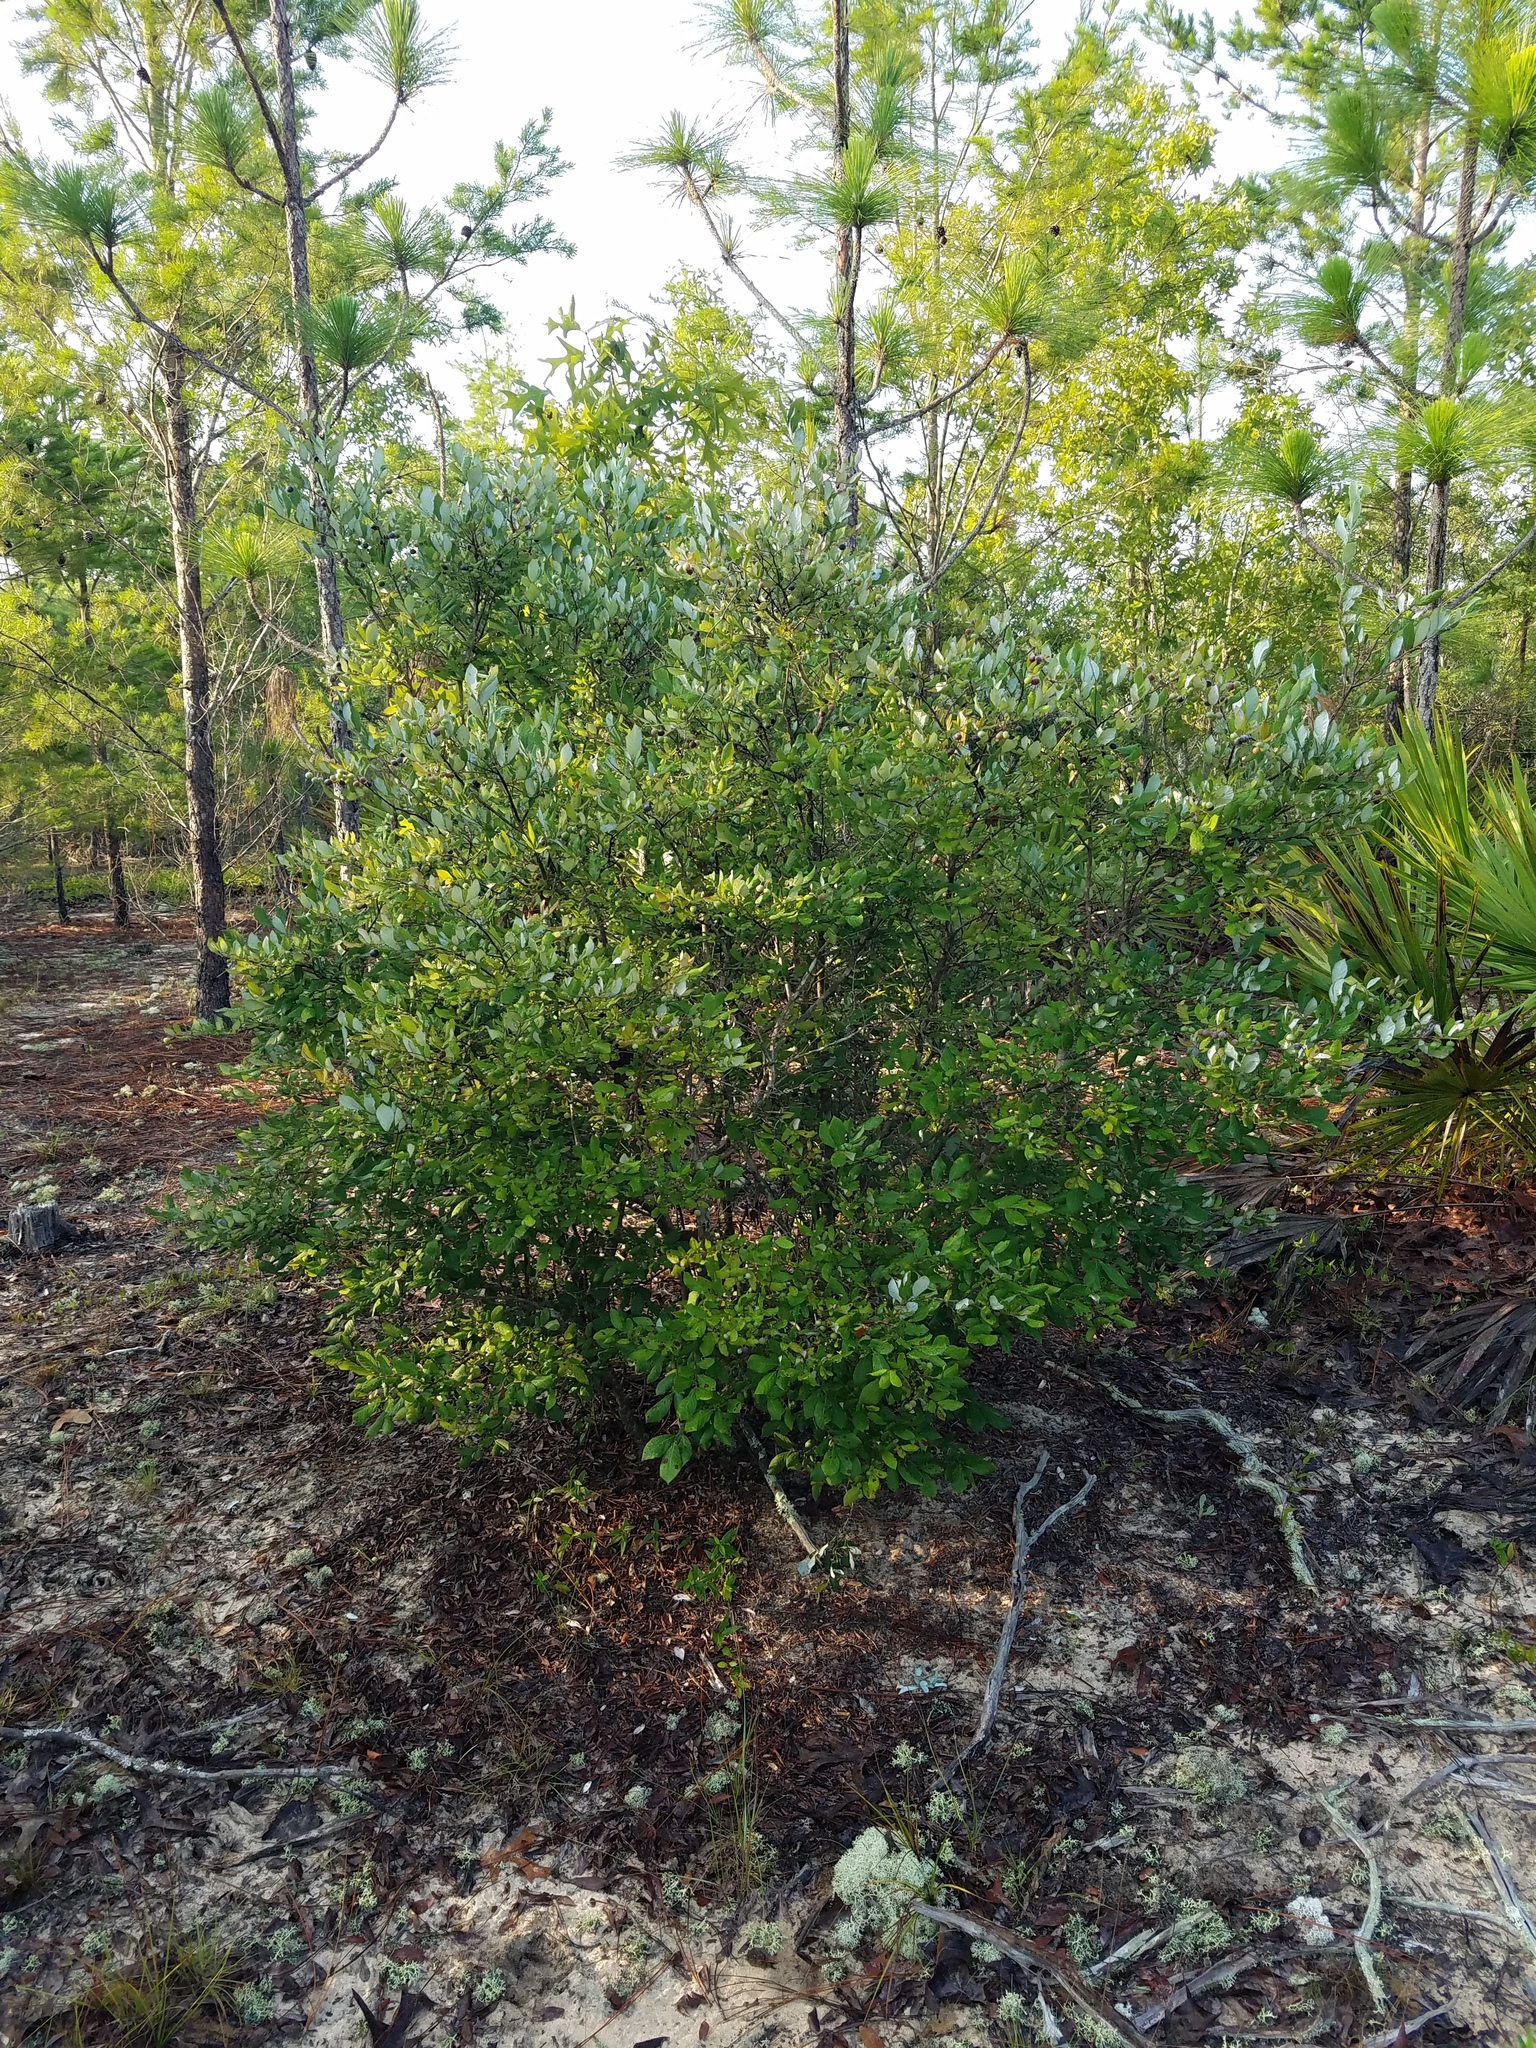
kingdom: Plantae
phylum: Tracheophyta
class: Magnoliopsida
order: Ericales
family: Ericaceae
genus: Vaccinium
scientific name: Vaccinium stamineum
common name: Deerberry
